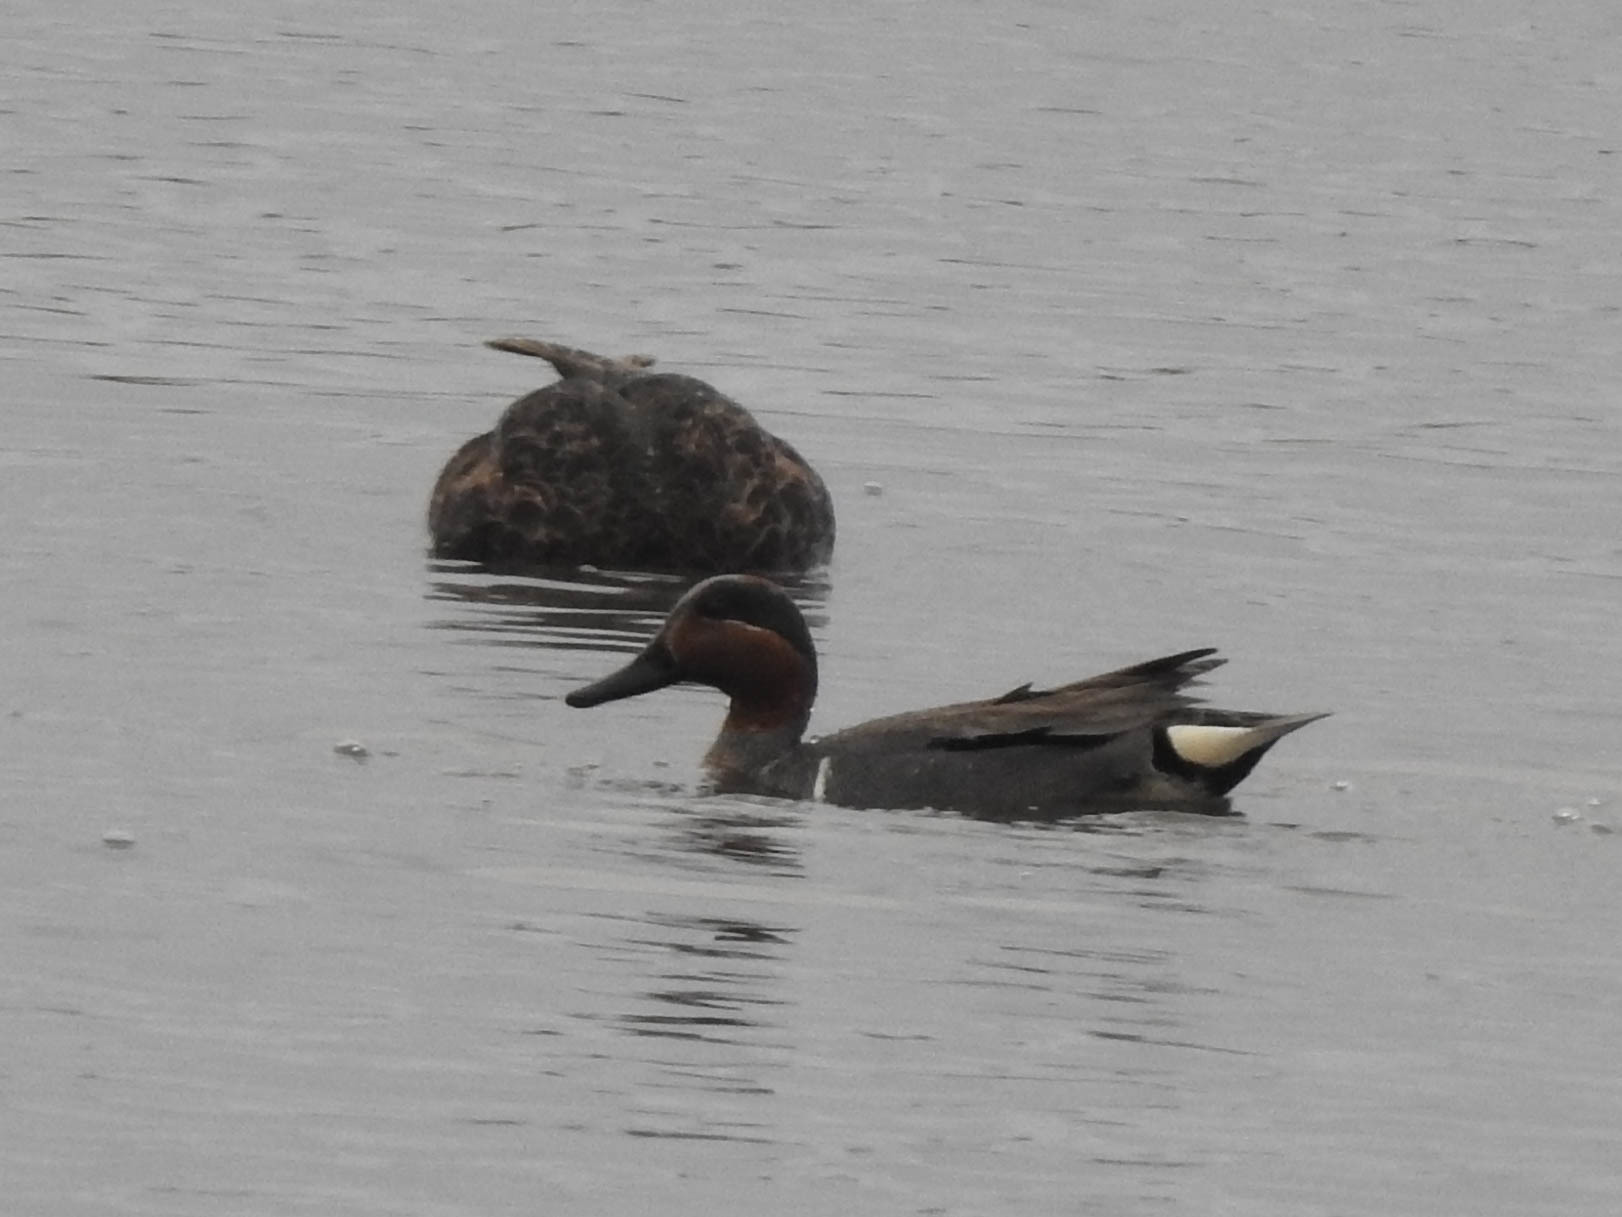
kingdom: Animalia
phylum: Chordata
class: Aves
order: Anseriformes
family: Anatidae
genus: Anas
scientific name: Anas crecca
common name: Eurasian teal
